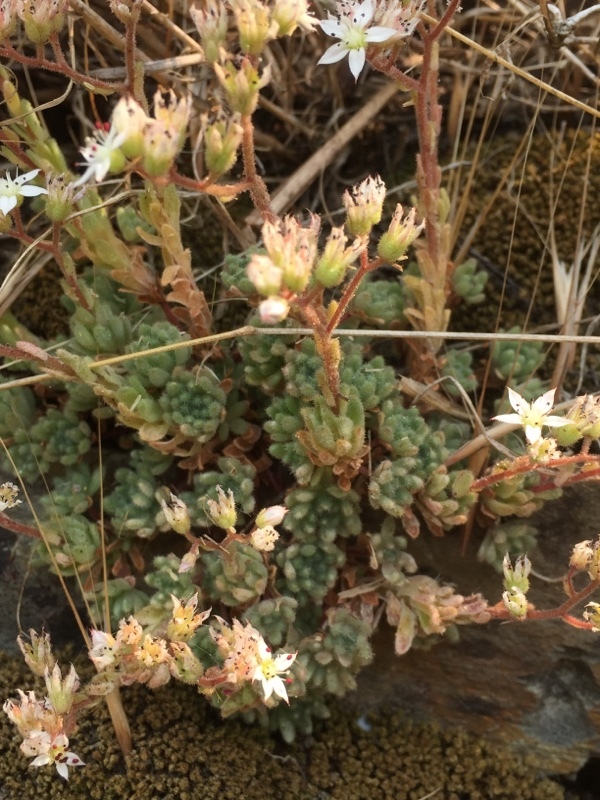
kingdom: Plantae
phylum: Tracheophyta
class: Magnoliopsida
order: Saxifragales
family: Crassulaceae
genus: Sedum
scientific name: Sedum hirsutum
